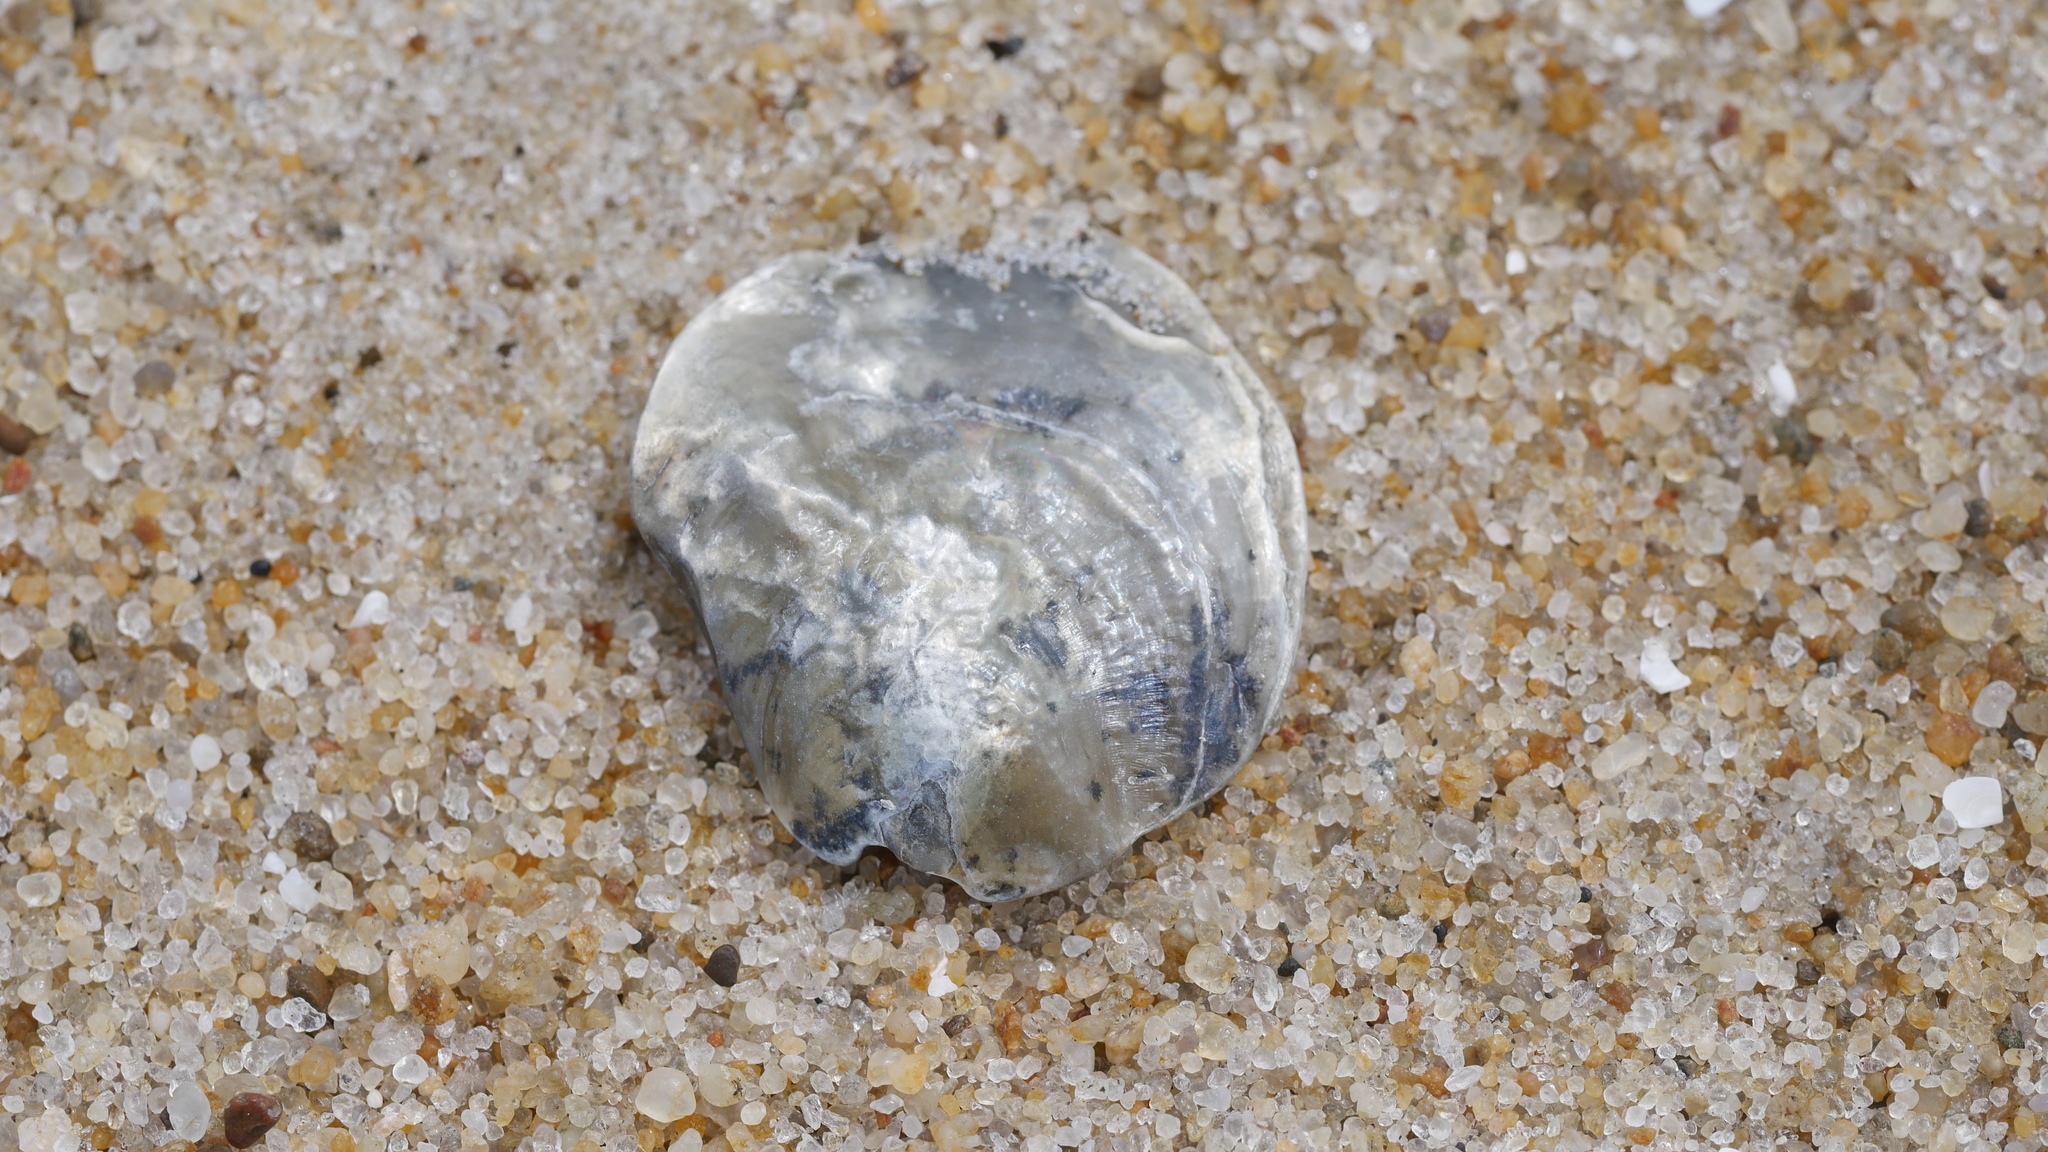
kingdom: Animalia
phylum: Mollusca
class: Bivalvia
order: Pectinida
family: Anomiidae
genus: Anomia
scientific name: Anomia simplex
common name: Common jingle shell
